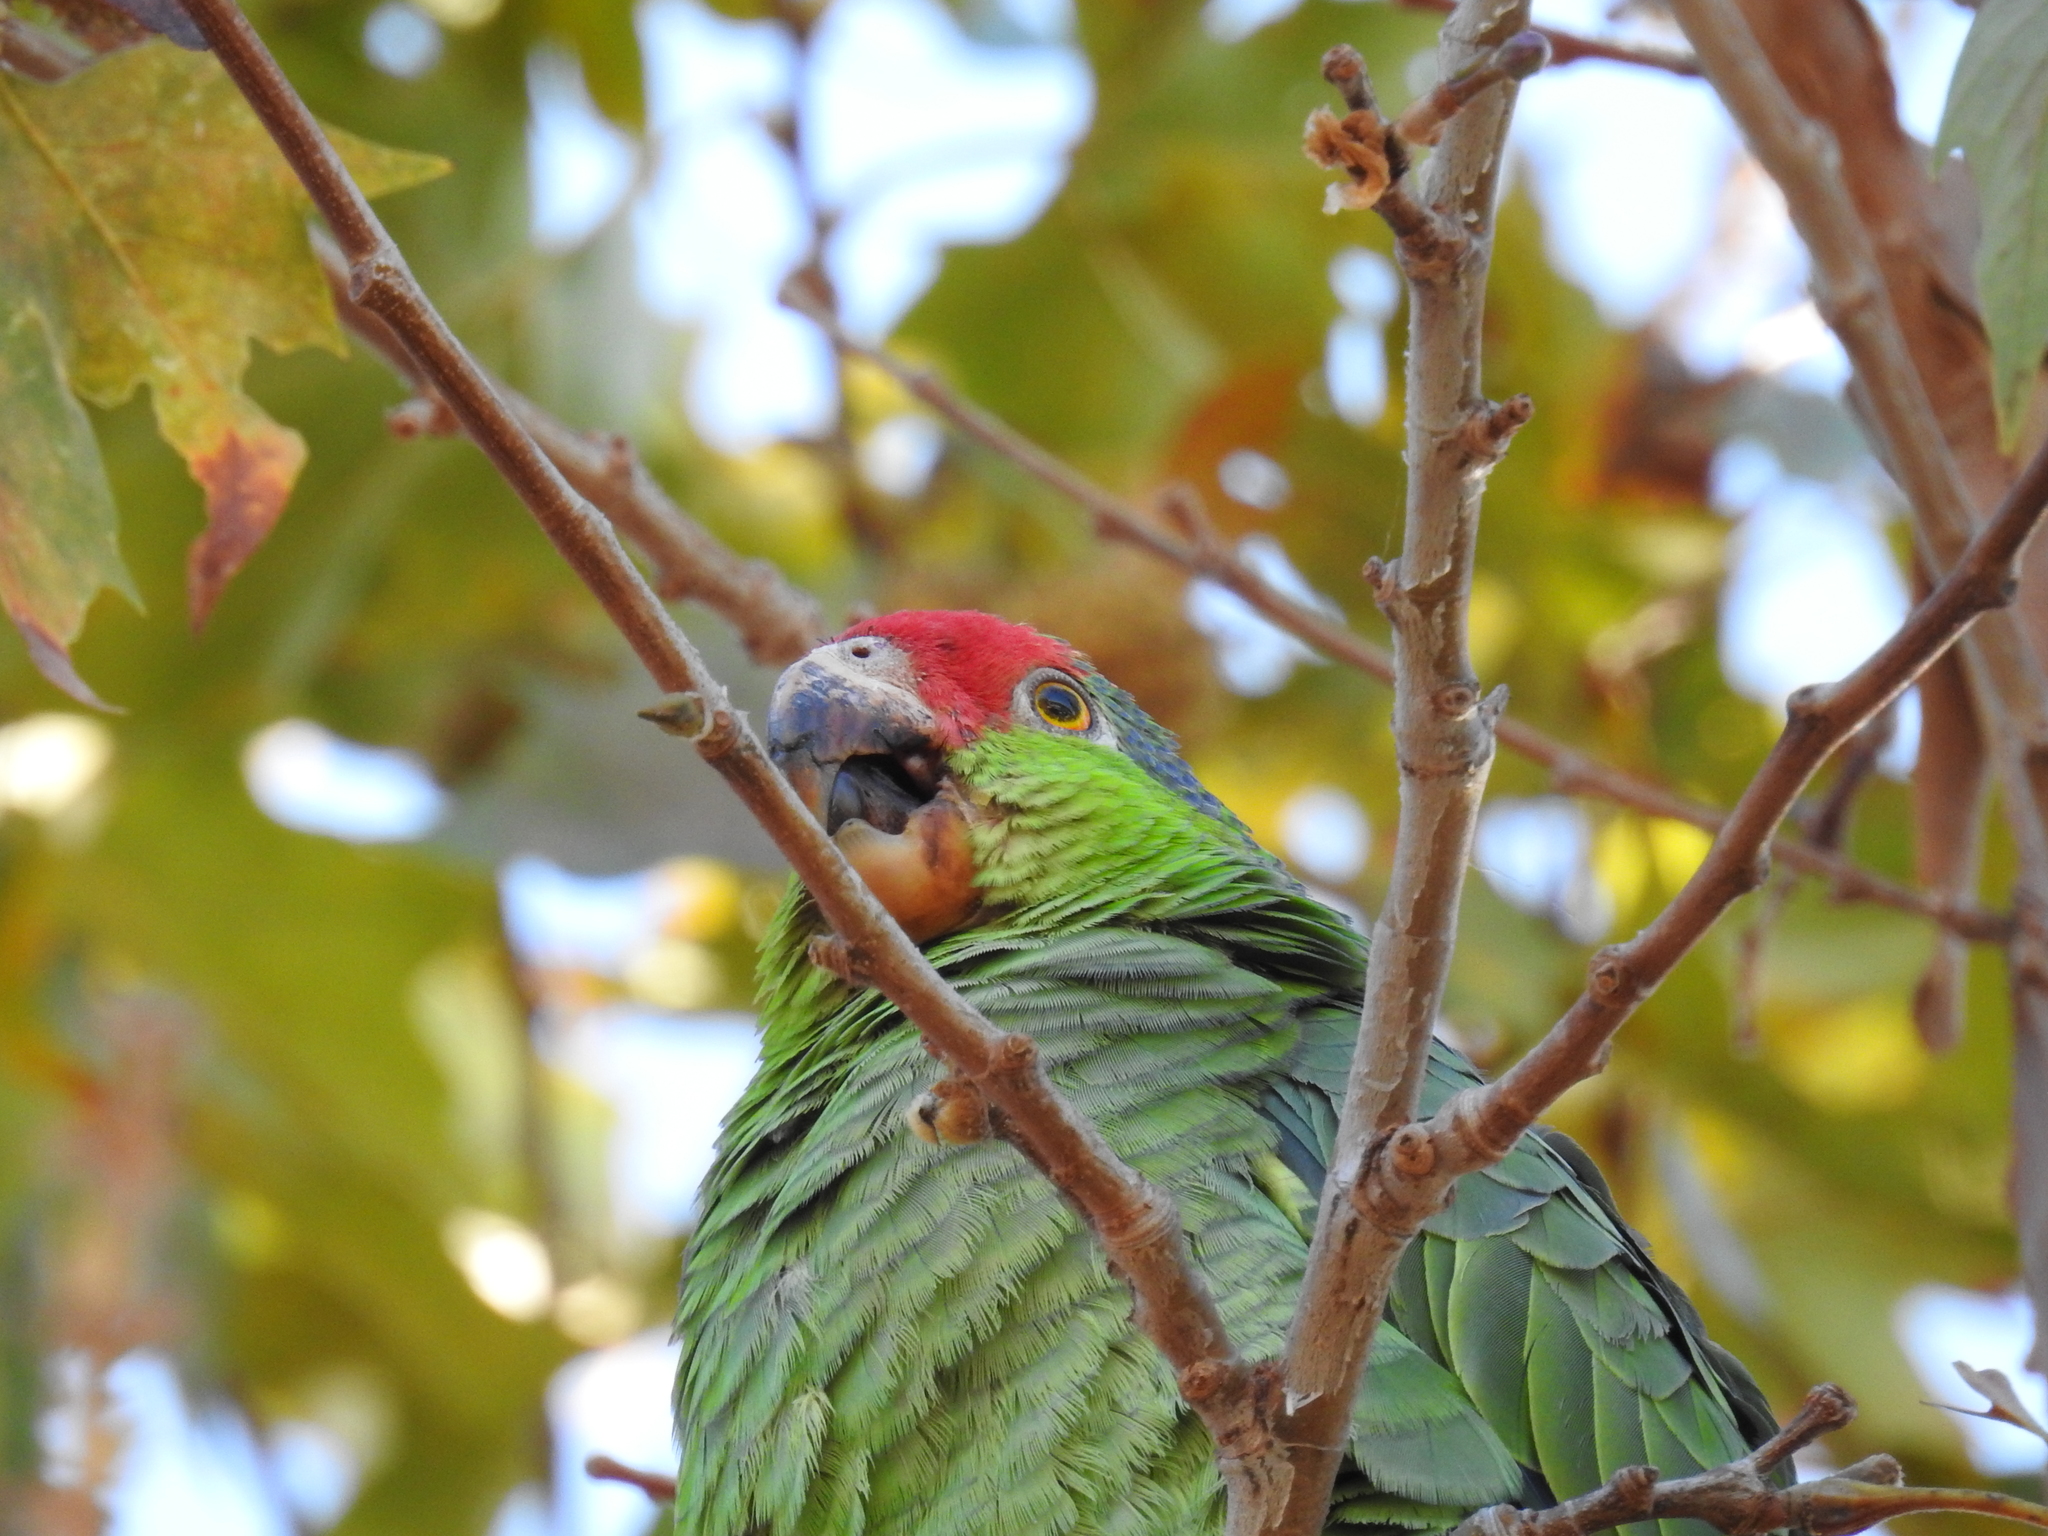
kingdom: Animalia
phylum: Chordata
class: Aves
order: Psittaciformes
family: Psittacidae
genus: Amazona
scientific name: Amazona viridigenalis
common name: Red-crowned amazon
